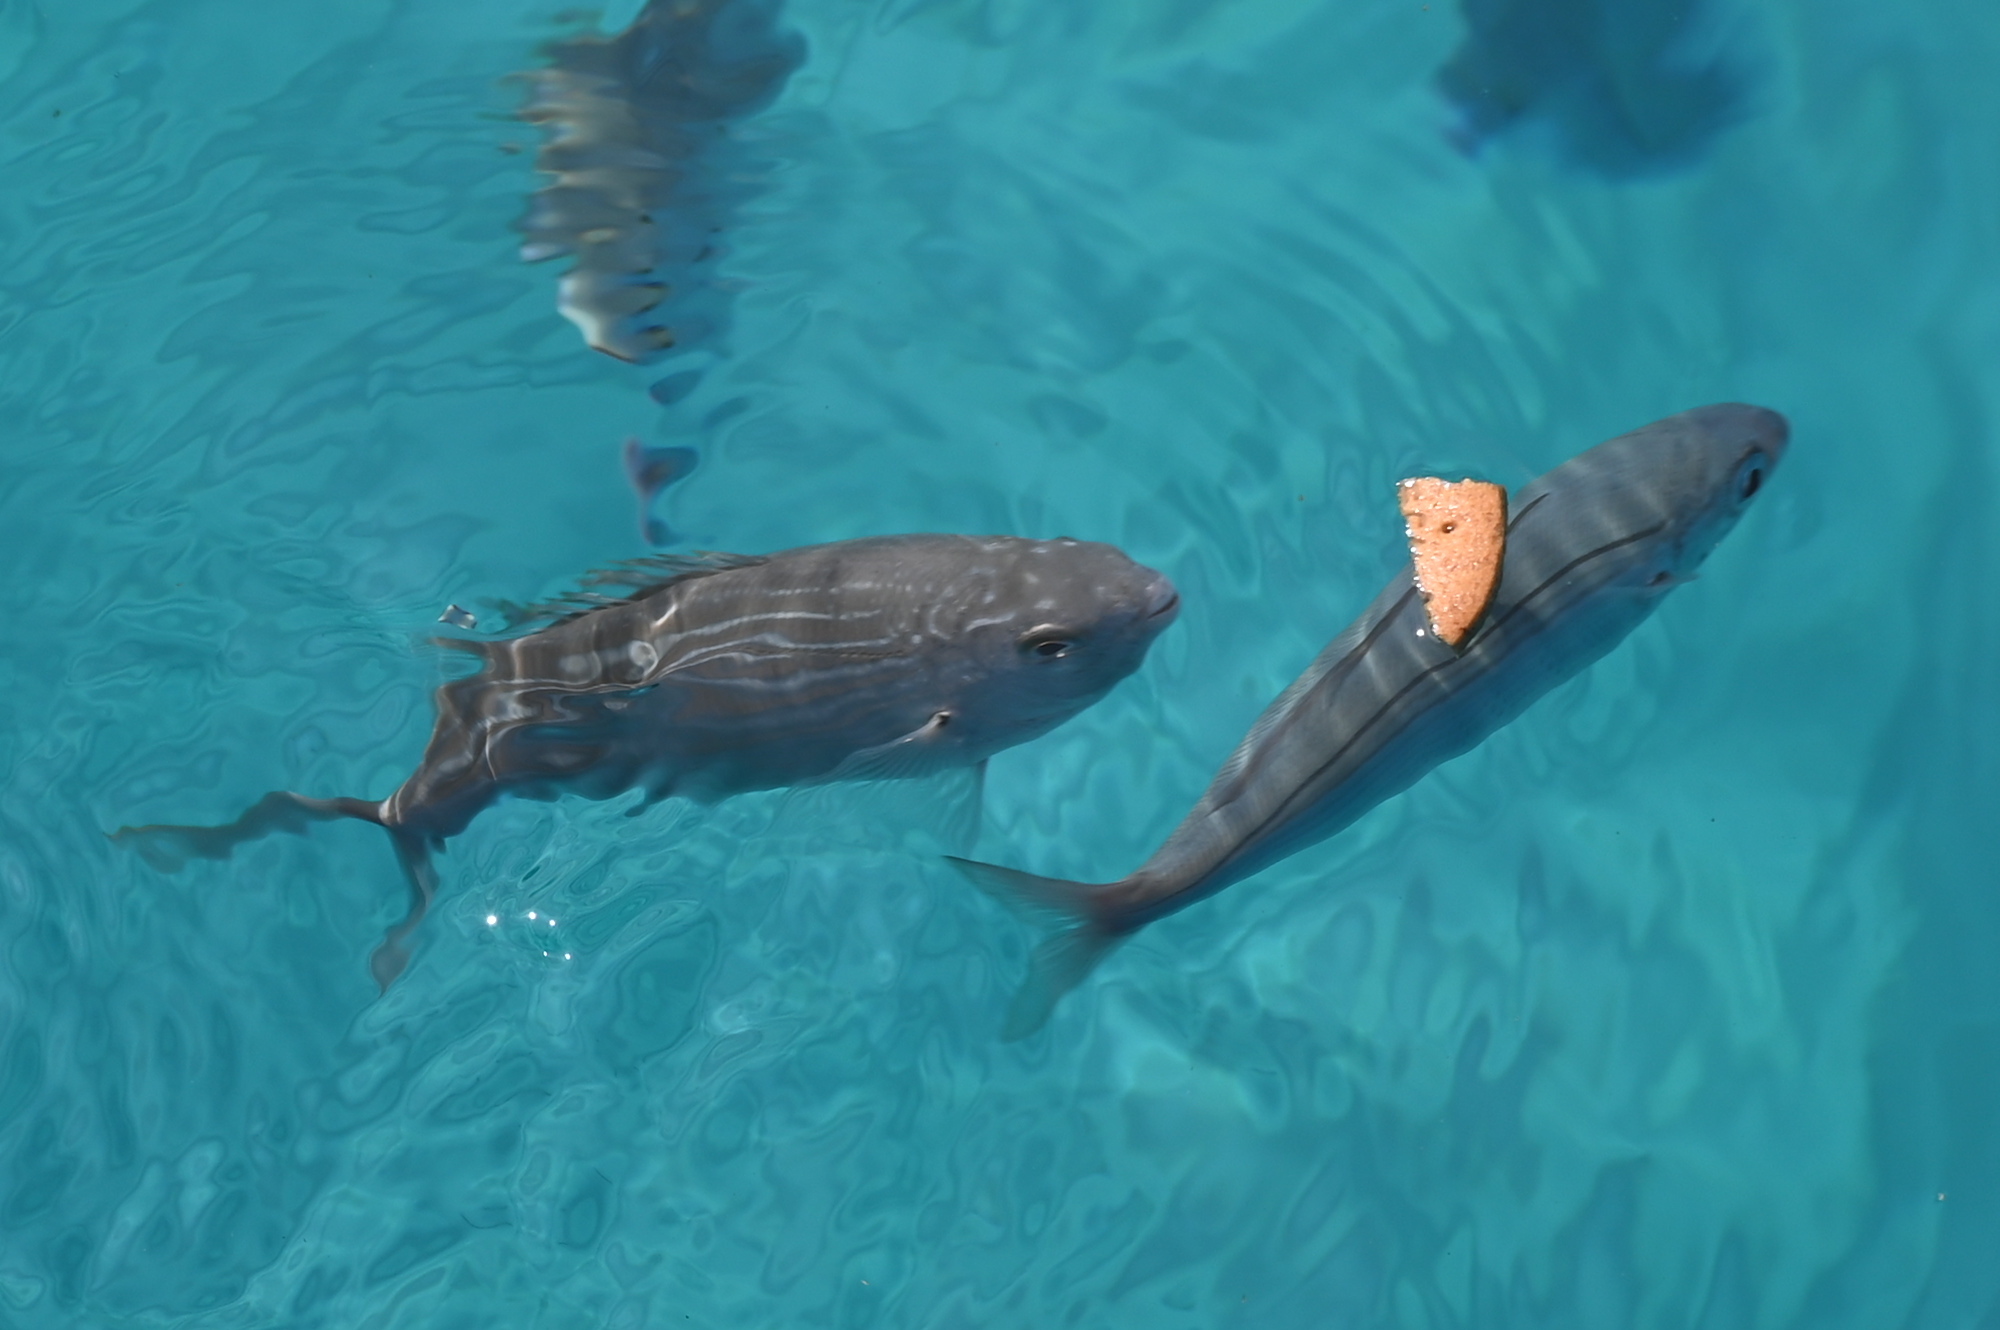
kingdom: Animalia
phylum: Chordata
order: Perciformes
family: Sparidae
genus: Sarpa
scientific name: Sarpa salpa
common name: Salema
